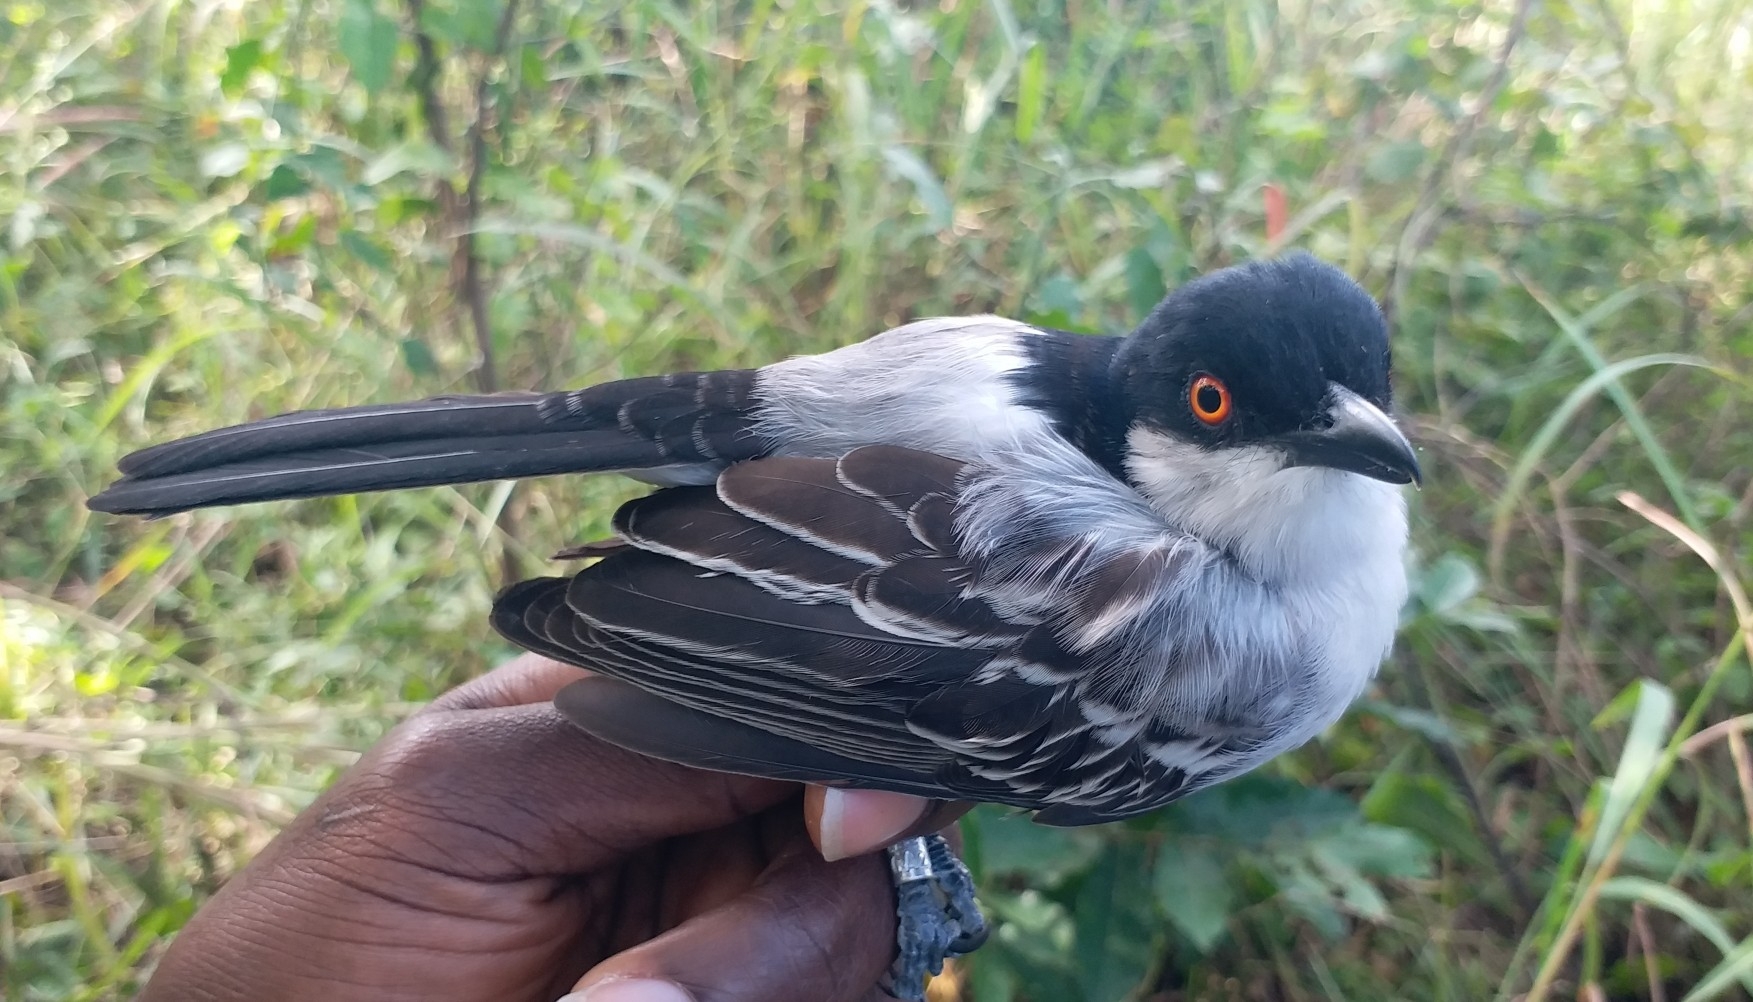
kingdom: Animalia
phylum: Chordata
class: Aves
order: Passeriformes
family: Malaconotidae
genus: Dryoscopus
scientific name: Dryoscopus gambensis
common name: Northern puffback
